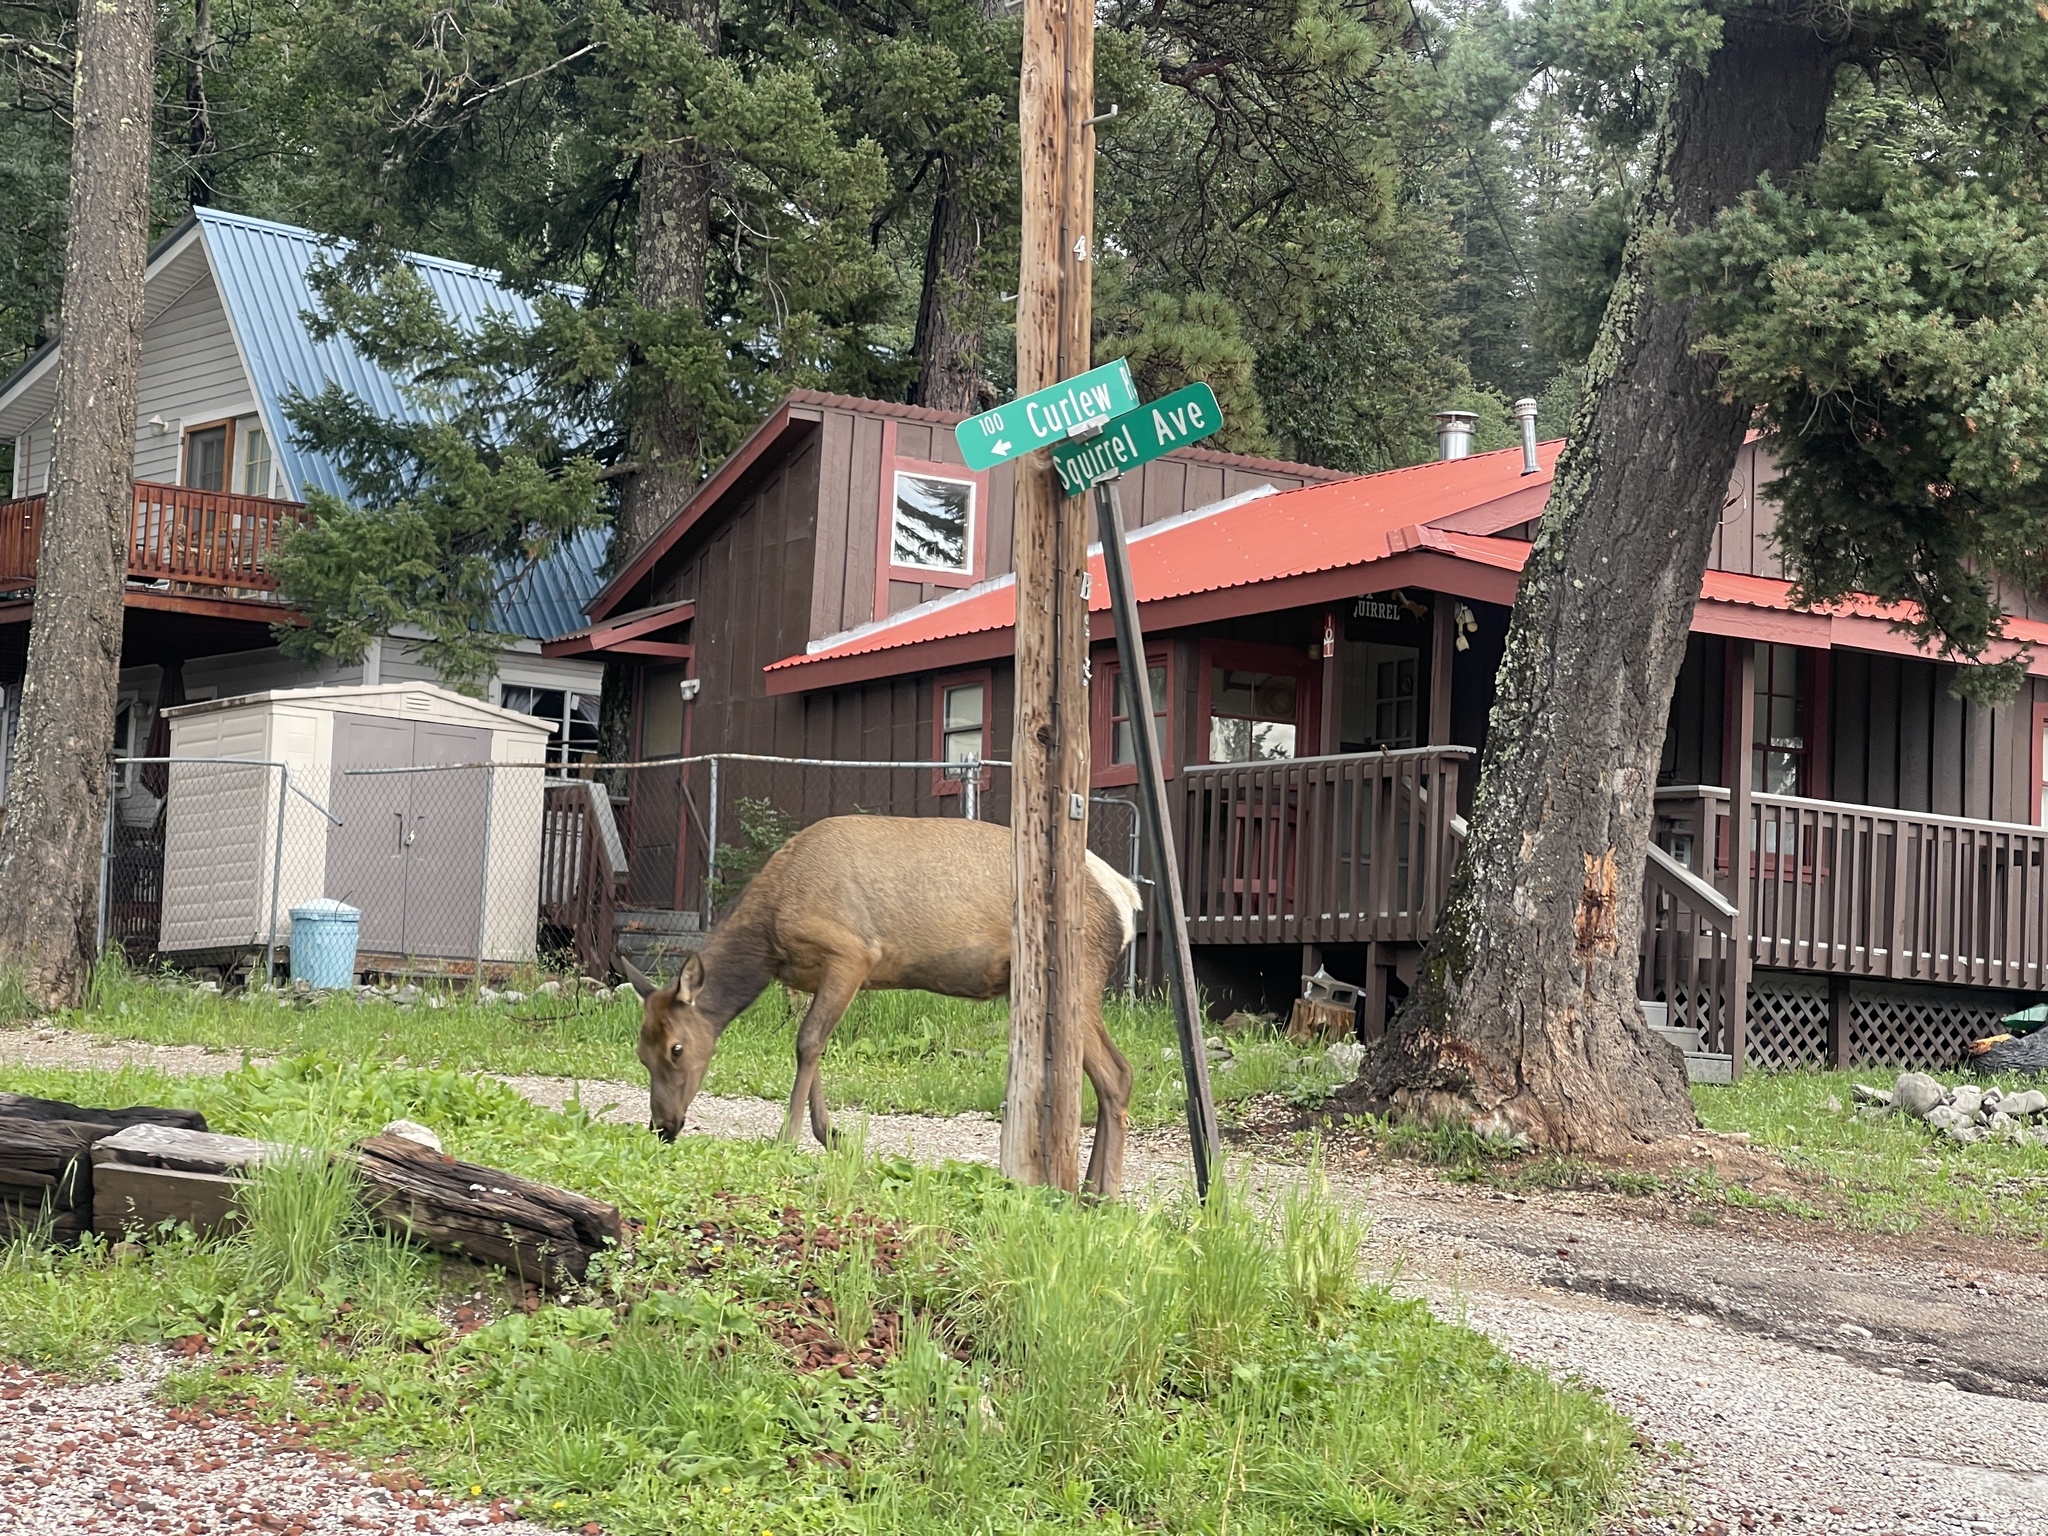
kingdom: Animalia
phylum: Chordata
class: Mammalia
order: Artiodactyla
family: Cervidae
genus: Cervus
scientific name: Cervus elaphus
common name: Red deer
